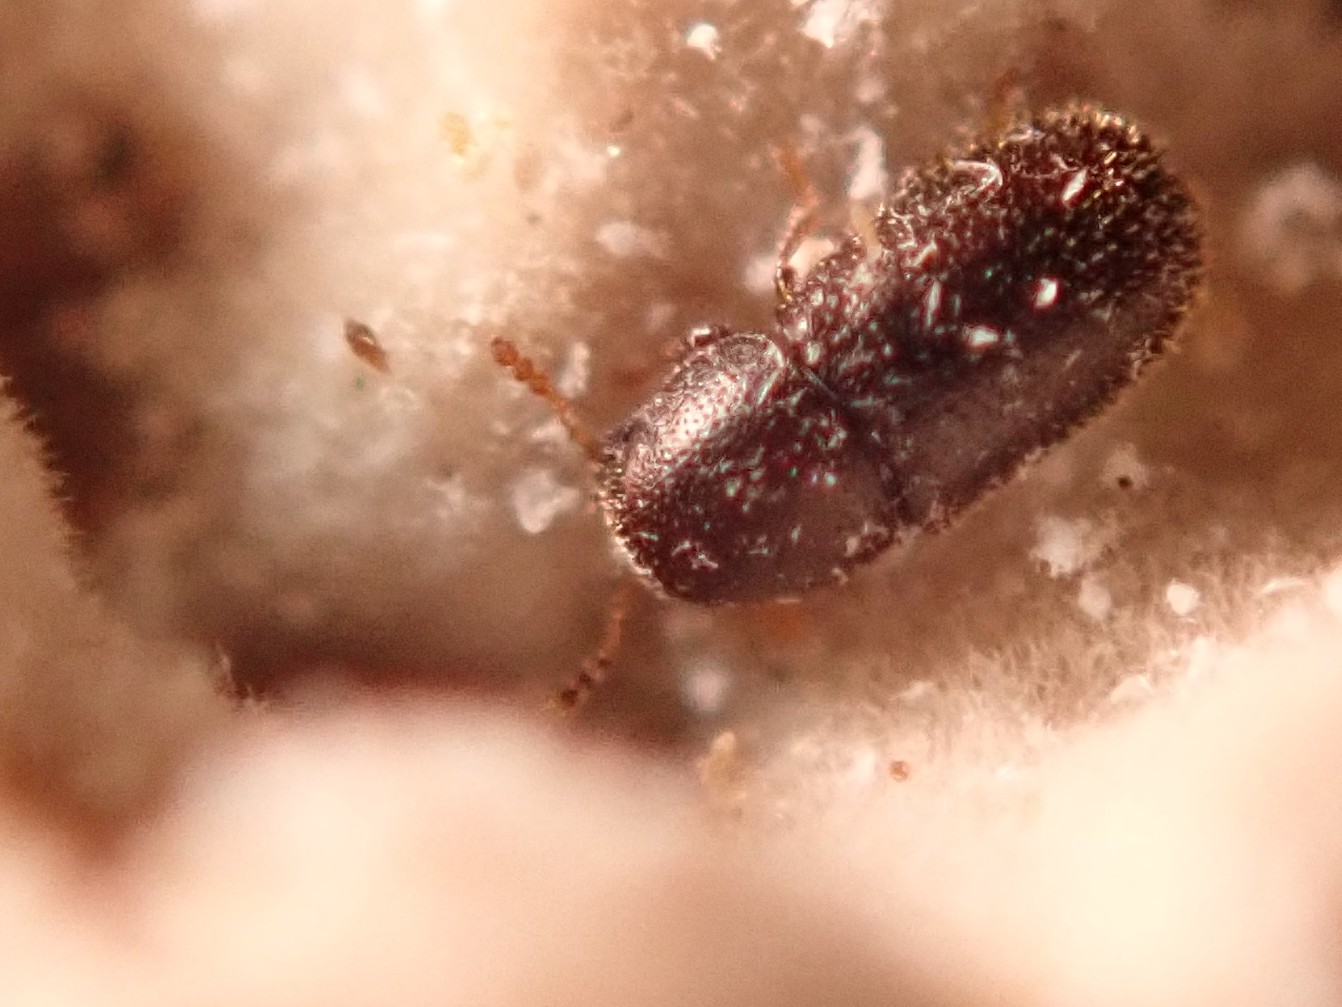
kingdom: Animalia
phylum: Arthropoda
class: Insecta
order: Coleoptera
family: Ciidae
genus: Sulcacis
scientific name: Sulcacis fronticornis
